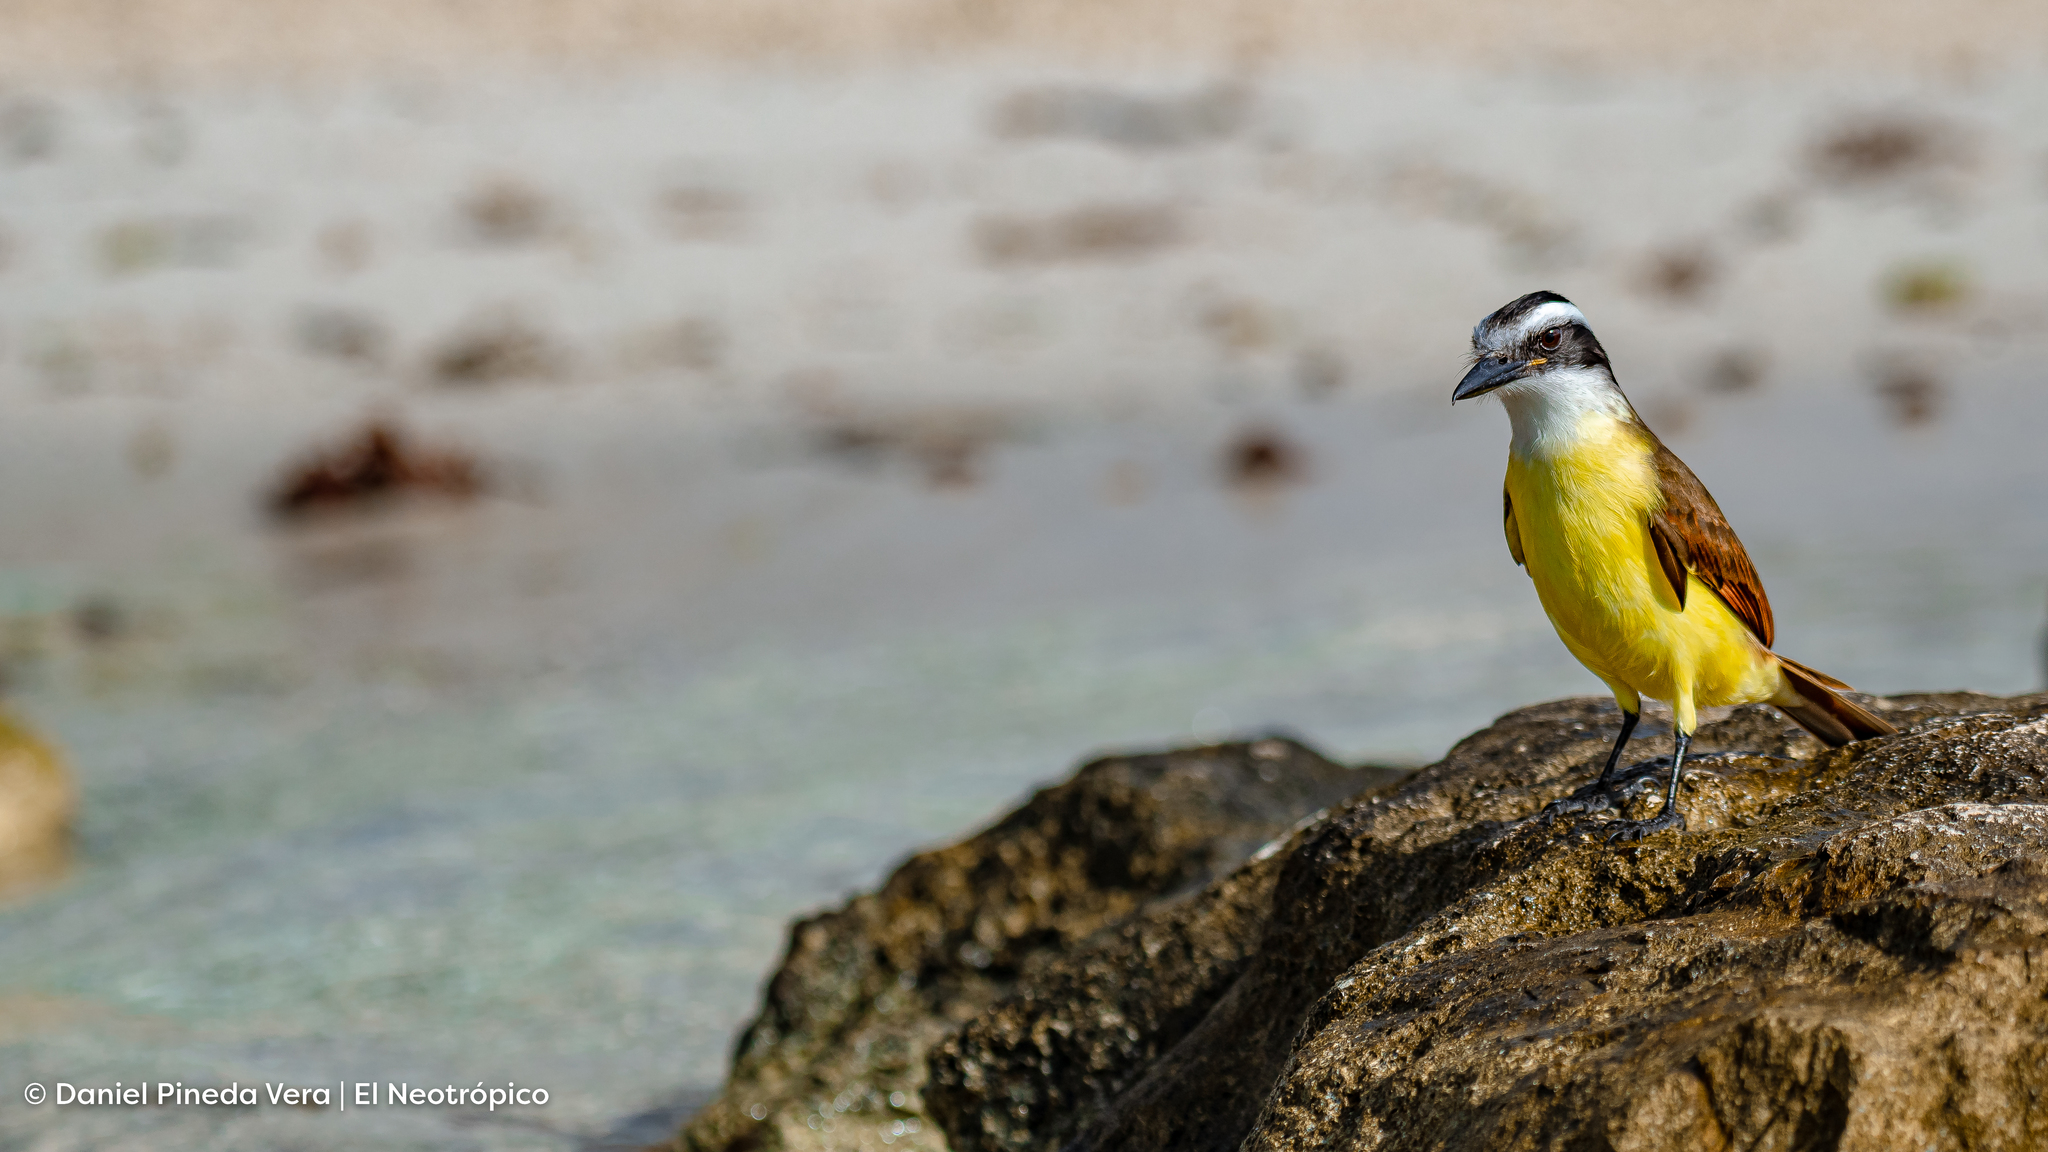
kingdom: Animalia
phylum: Chordata
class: Aves
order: Passeriformes
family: Tyrannidae
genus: Pitangus
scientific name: Pitangus sulphuratus
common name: Great kiskadee
